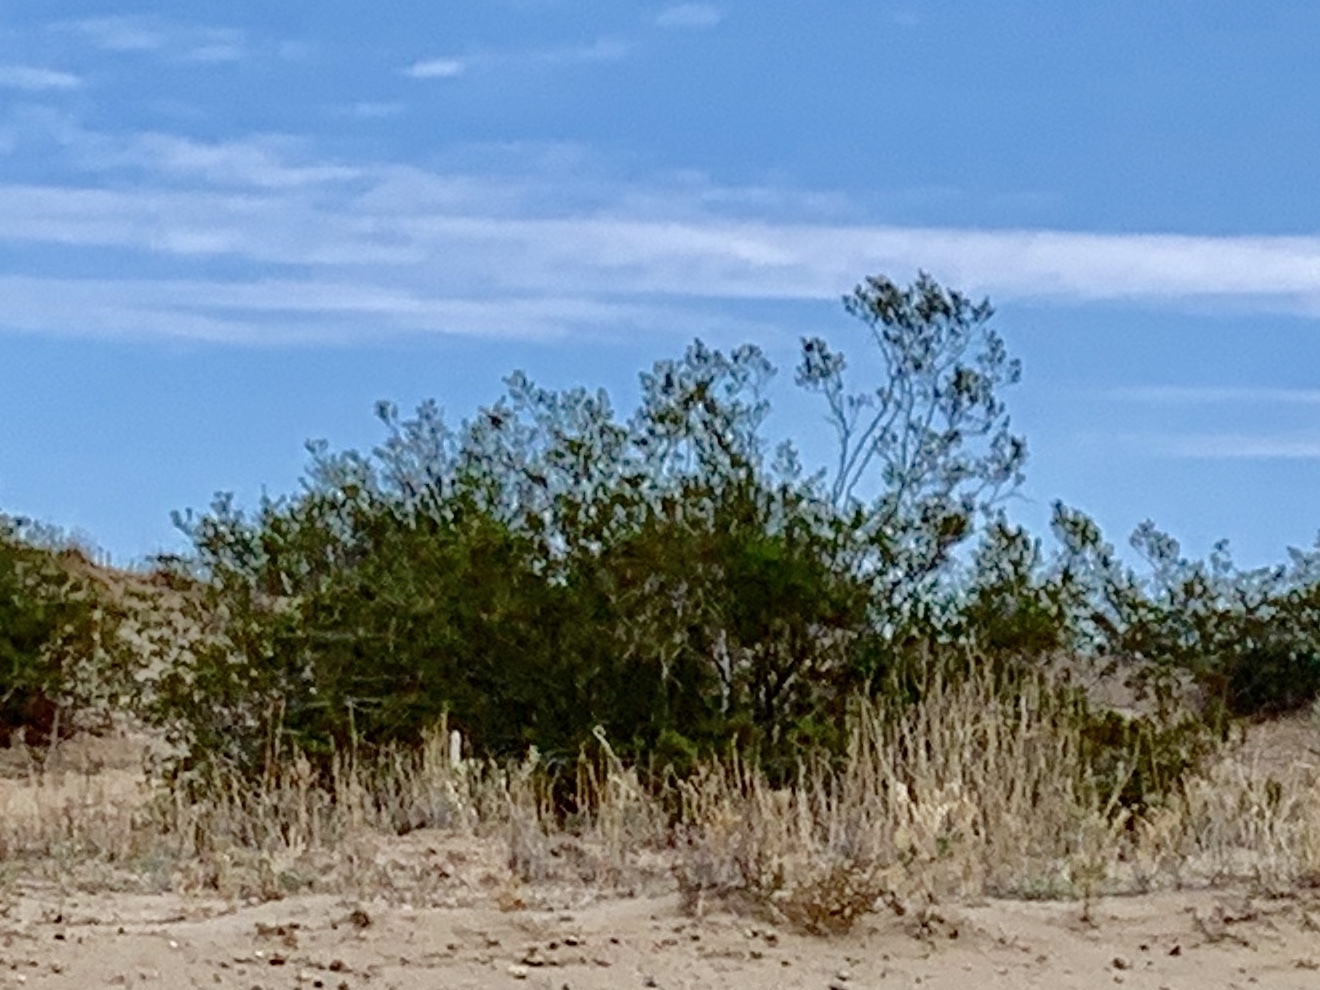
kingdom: Plantae
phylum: Tracheophyta
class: Magnoliopsida
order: Zygophyllales
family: Zygophyllaceae
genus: Larrea
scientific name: Larrea tridentata
